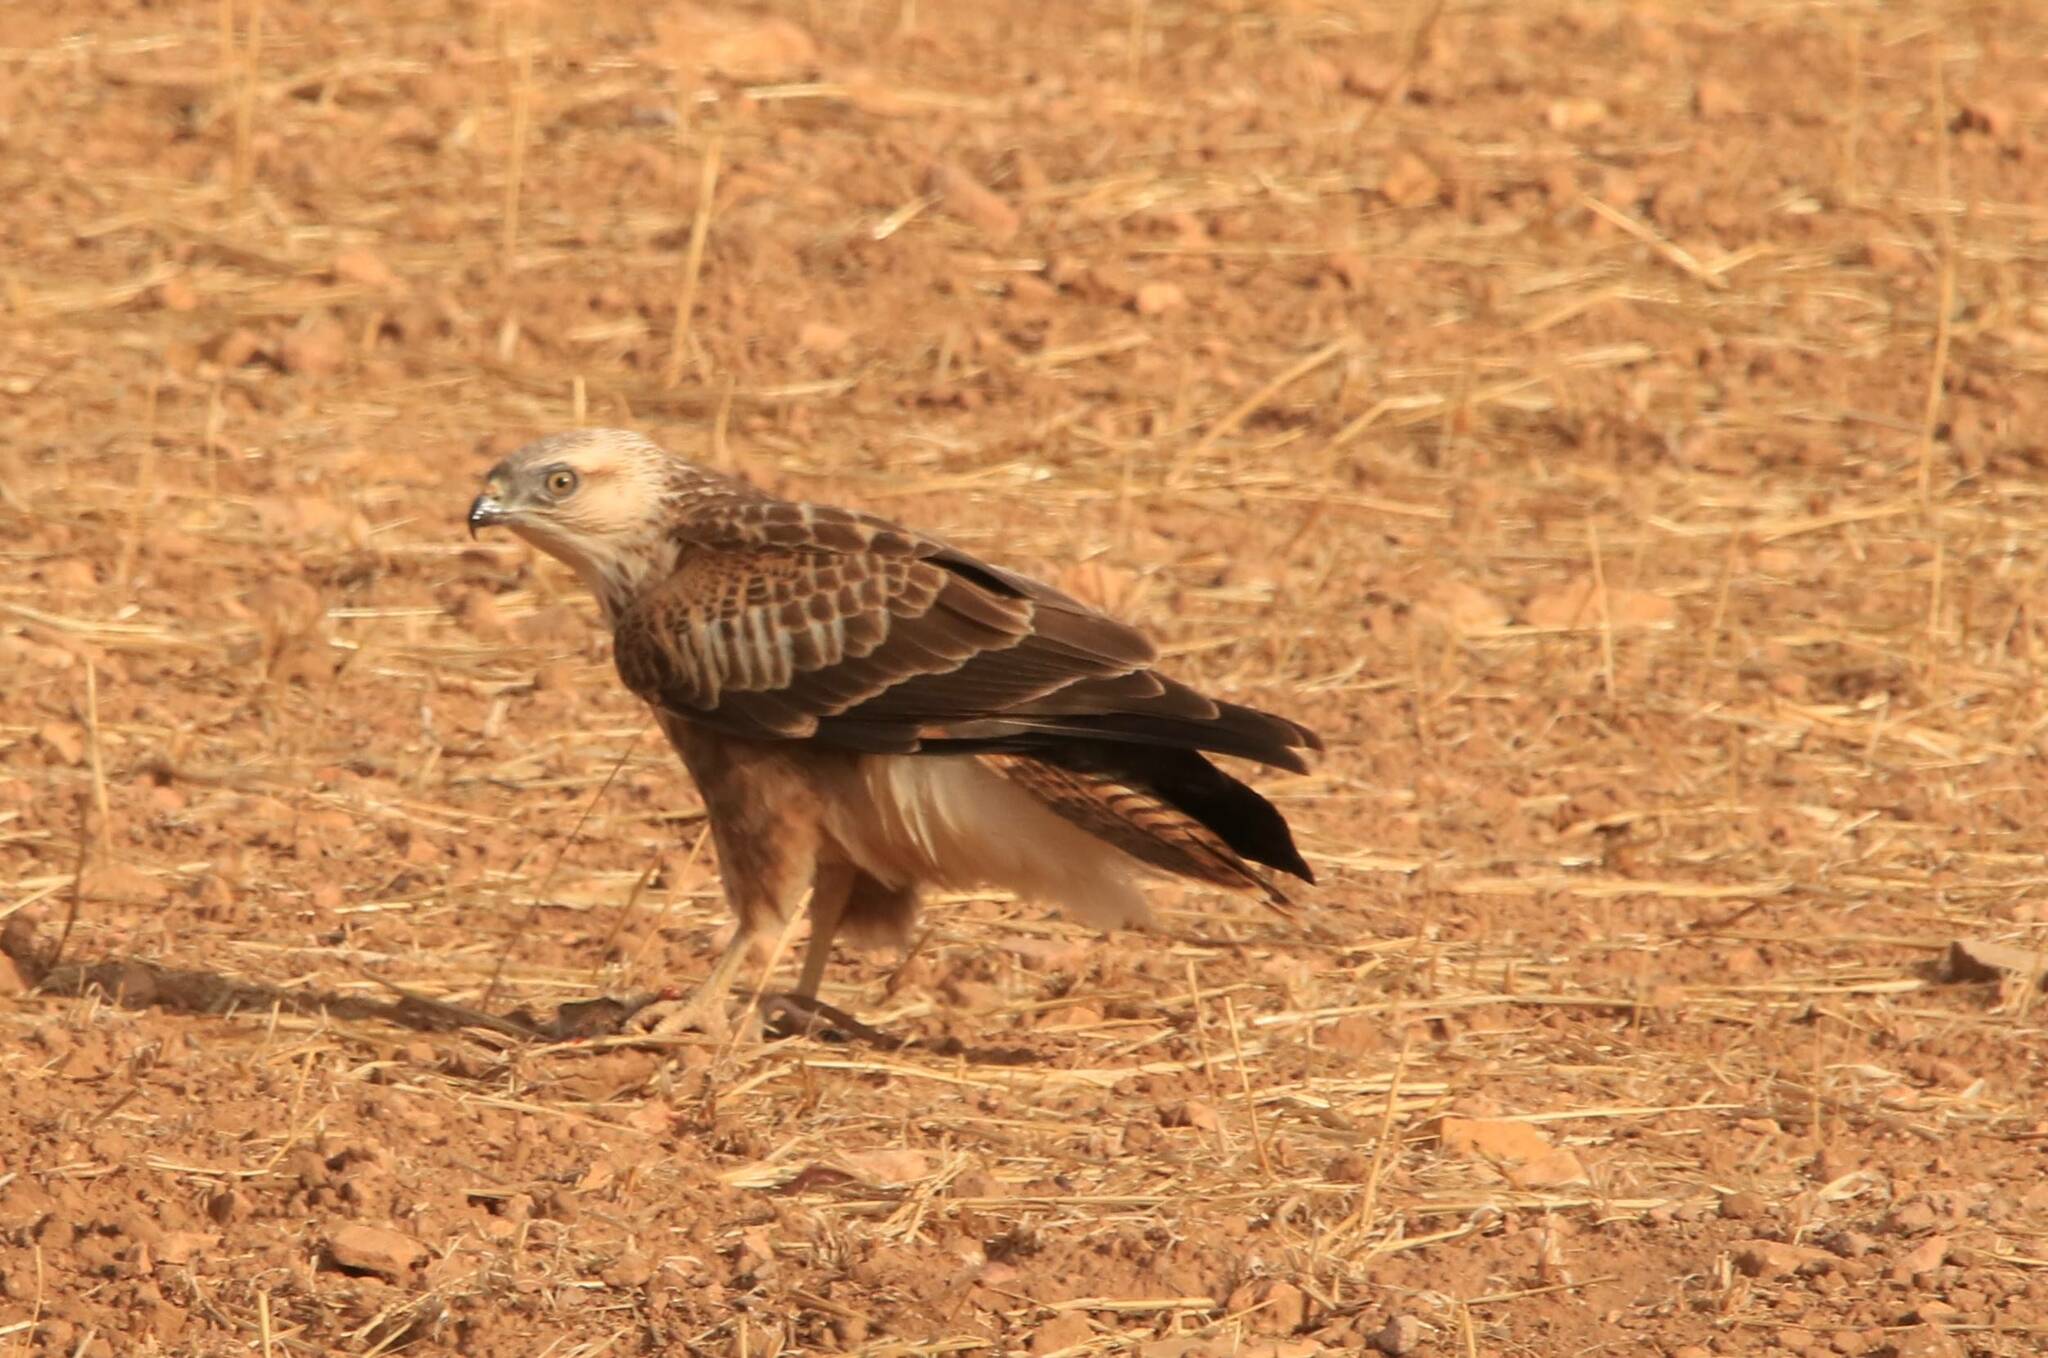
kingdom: Animalia
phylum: Chordata
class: Aves
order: Accipitriformes
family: Accipitridae
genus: Buteo
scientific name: Buteo rufinus
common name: Long-legged buzzard
